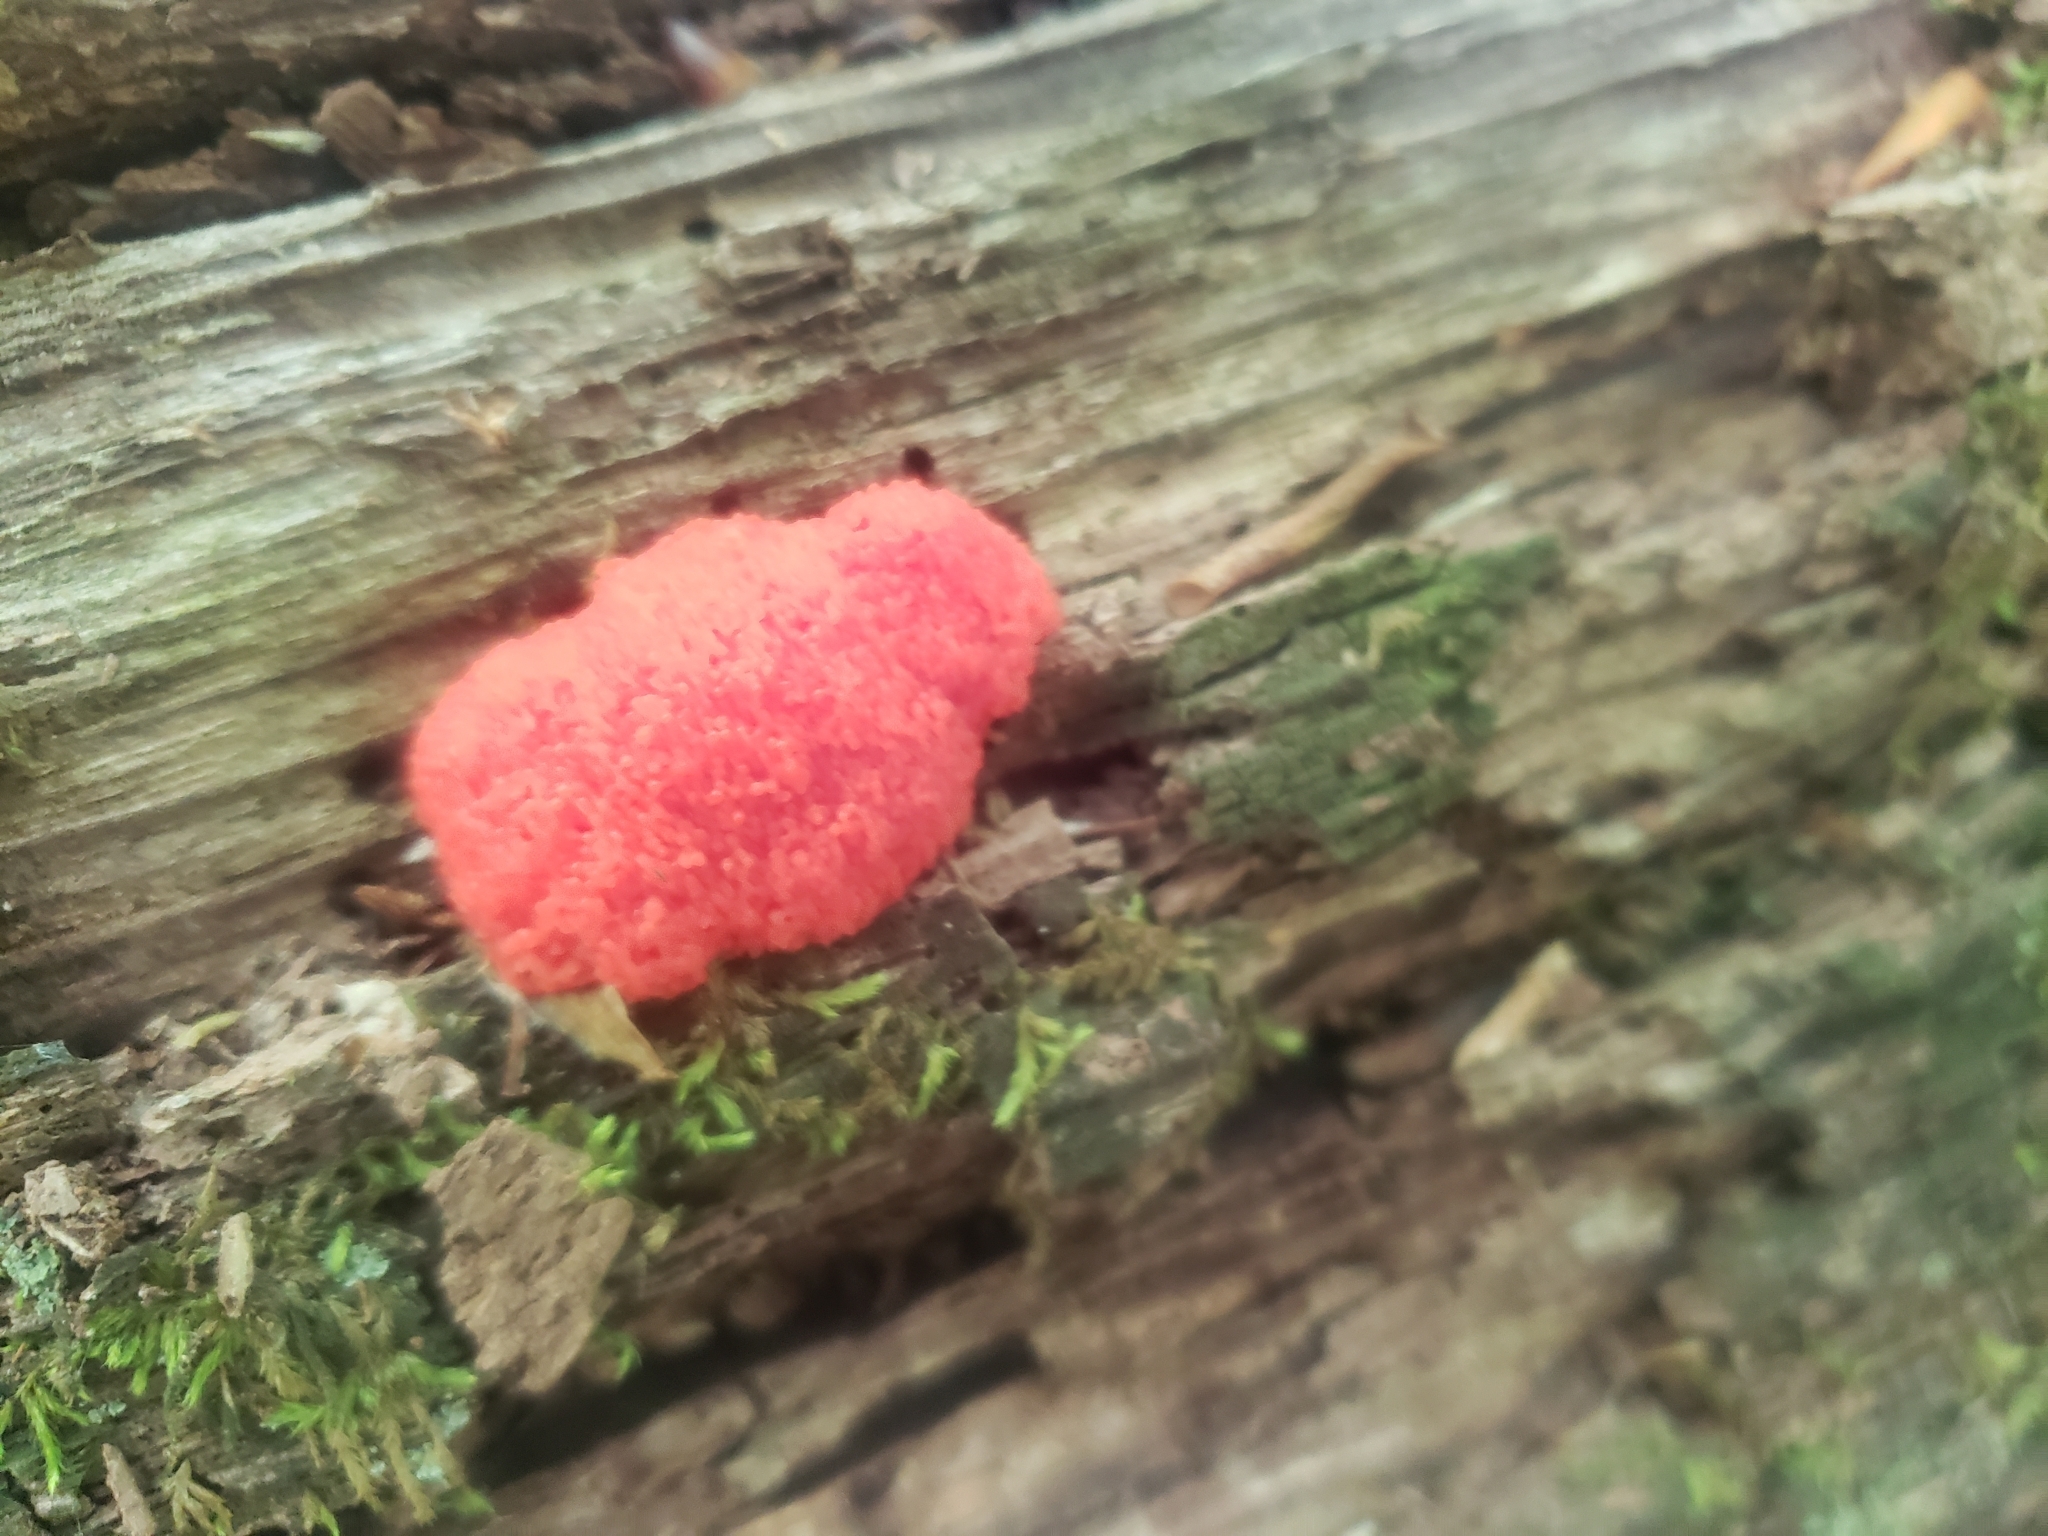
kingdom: Protozoa
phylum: Mycetozoa
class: Myxomycetes
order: Cribrariales
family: Tubiferaceae
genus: Tubifera
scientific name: Tubifera ferruginosa
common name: Red raspberry slime mold
